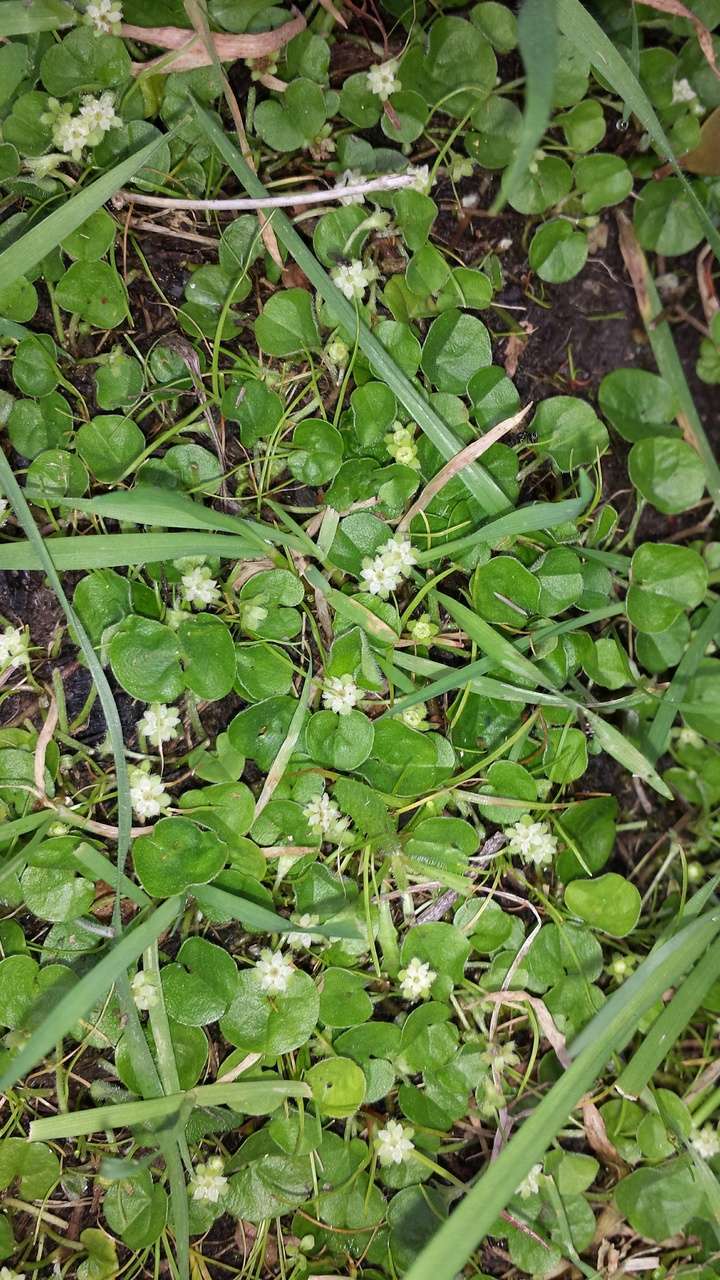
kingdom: Plantae
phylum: Tracheophyta
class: Magnoliopsida
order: Solanales
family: Convolvulaceae
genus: Dichondra
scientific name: Dichondra repens
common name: Kidneyweed
